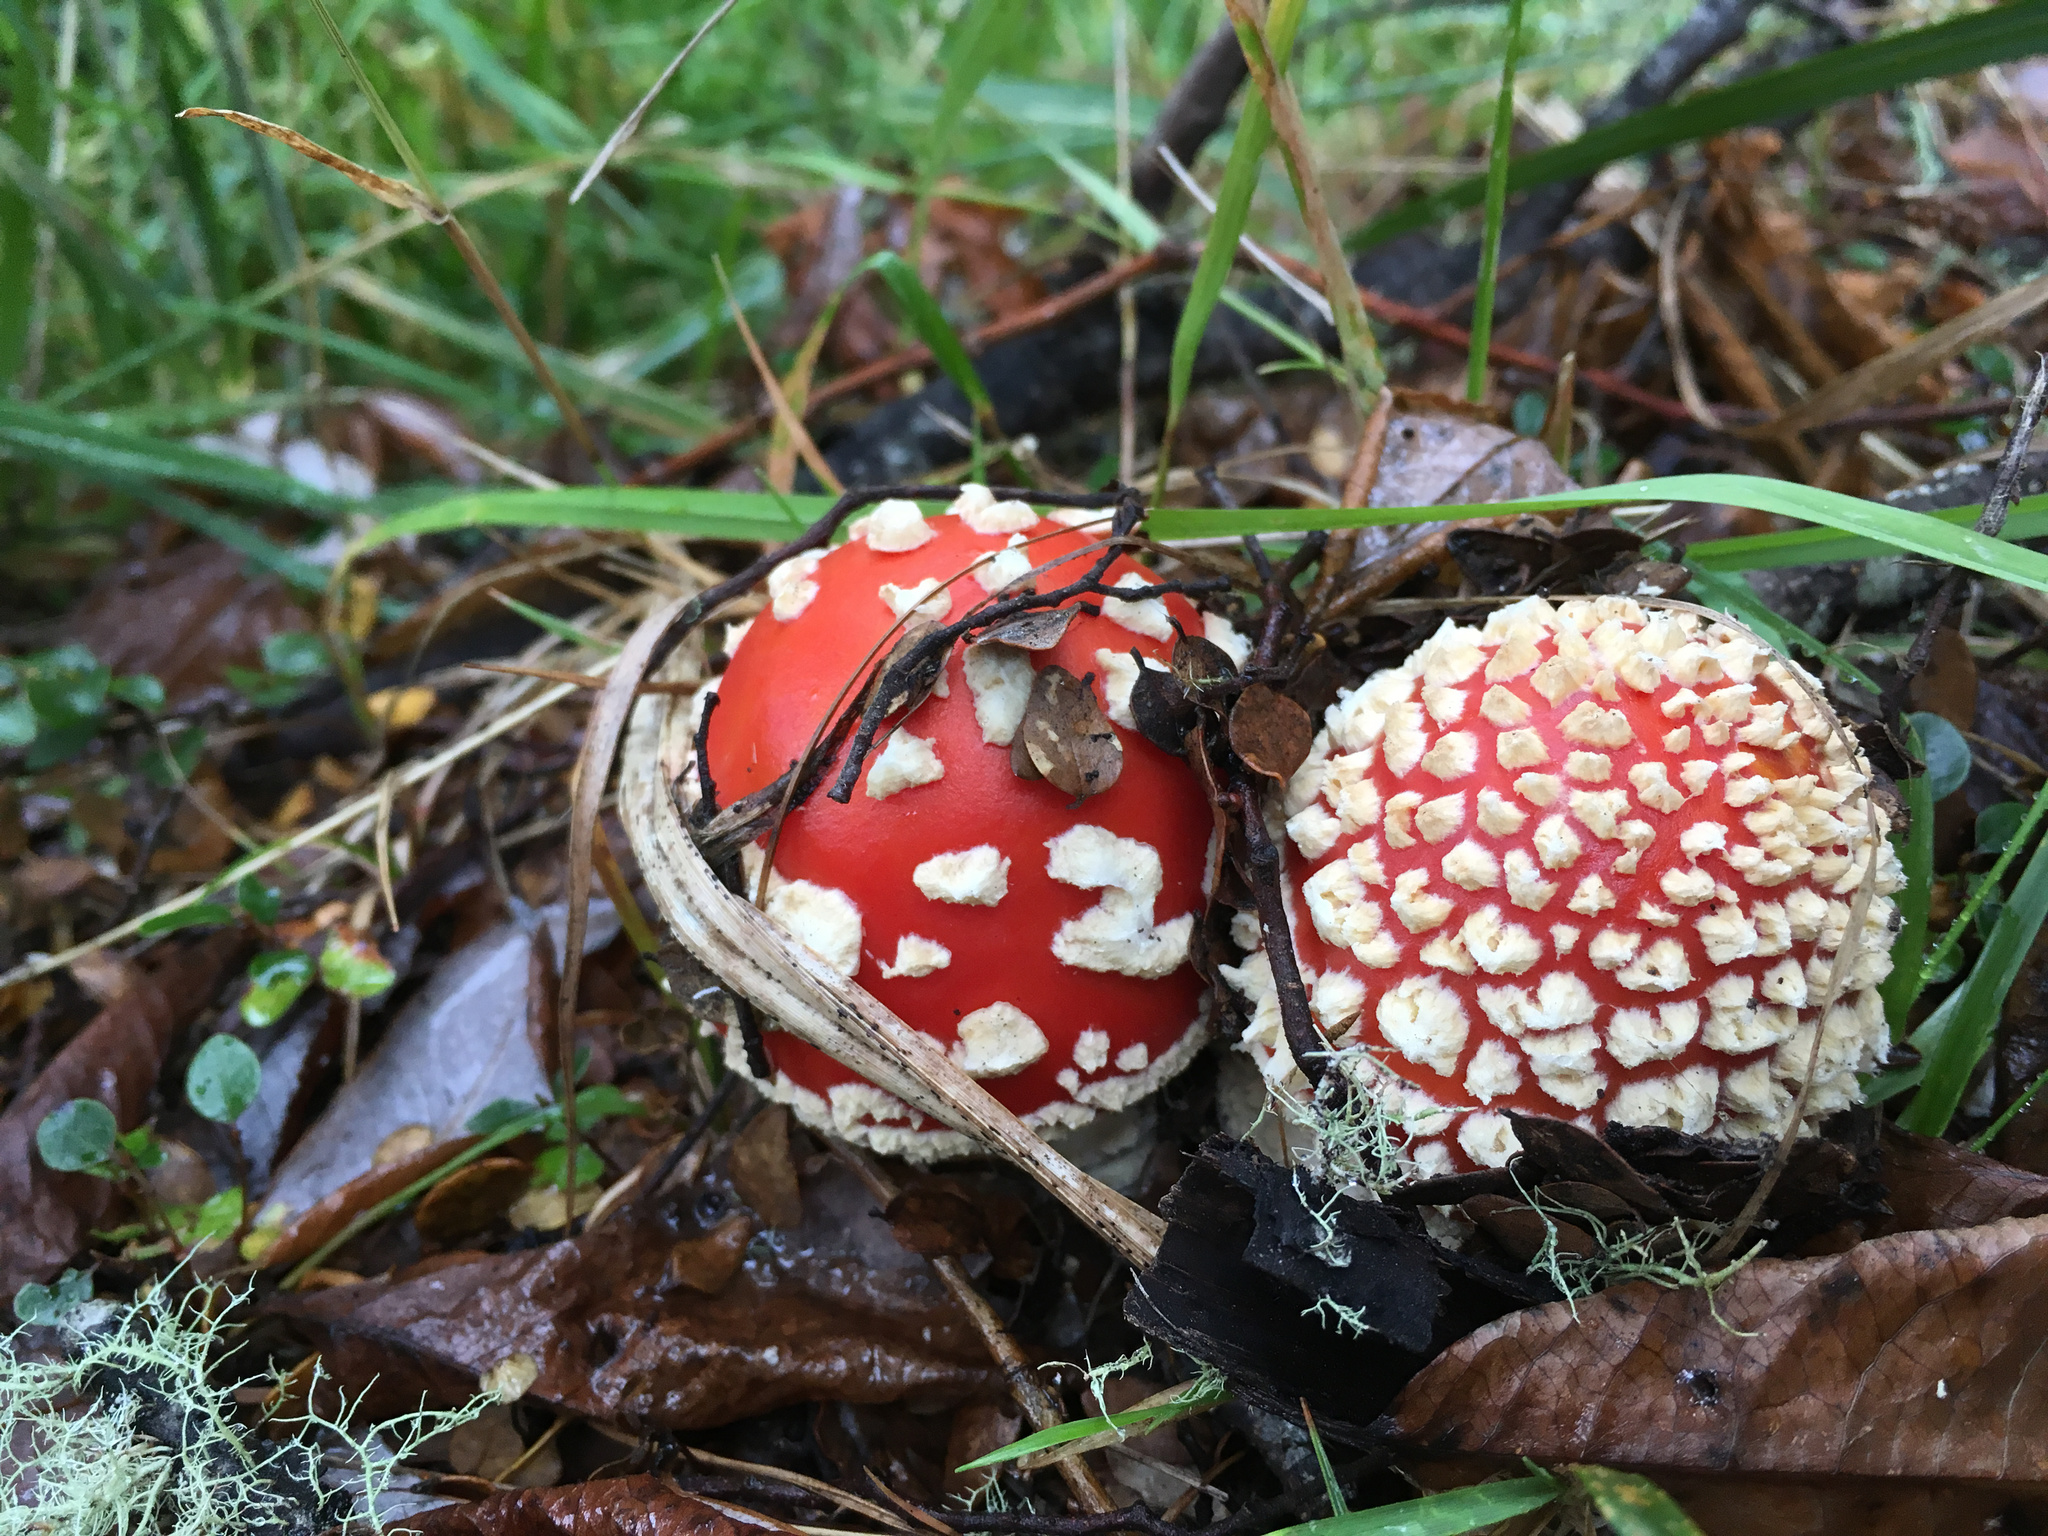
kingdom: Fungi
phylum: Basidiomycota
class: Agaricomycetes
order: Agaricales
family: Amanitaceae
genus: Amanita
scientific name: Amanita muscaria
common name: Fly agaric
